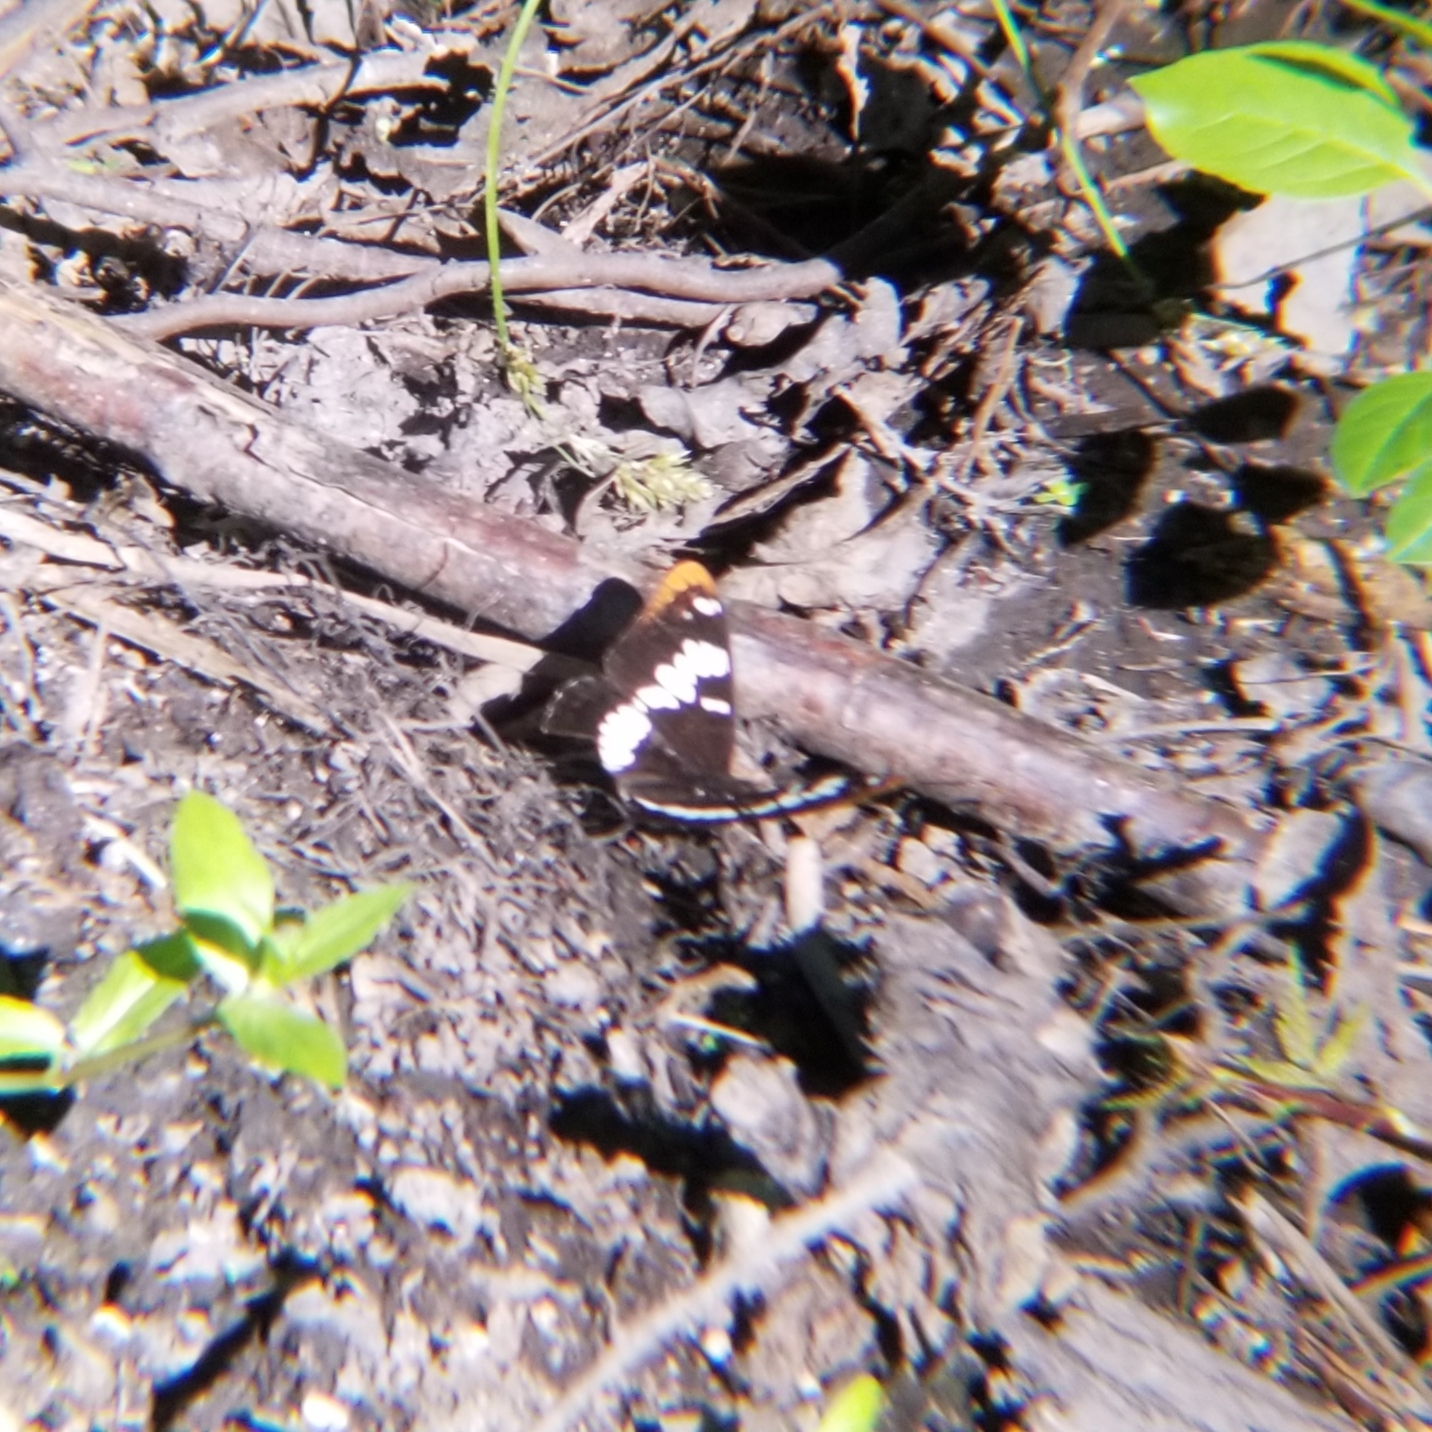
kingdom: Animalia
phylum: Arthropoda
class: Insecta
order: Lepidoptera
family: Nymphalidae
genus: Limenitis
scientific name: Limenitis lorquini
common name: Lorquin's admiral
